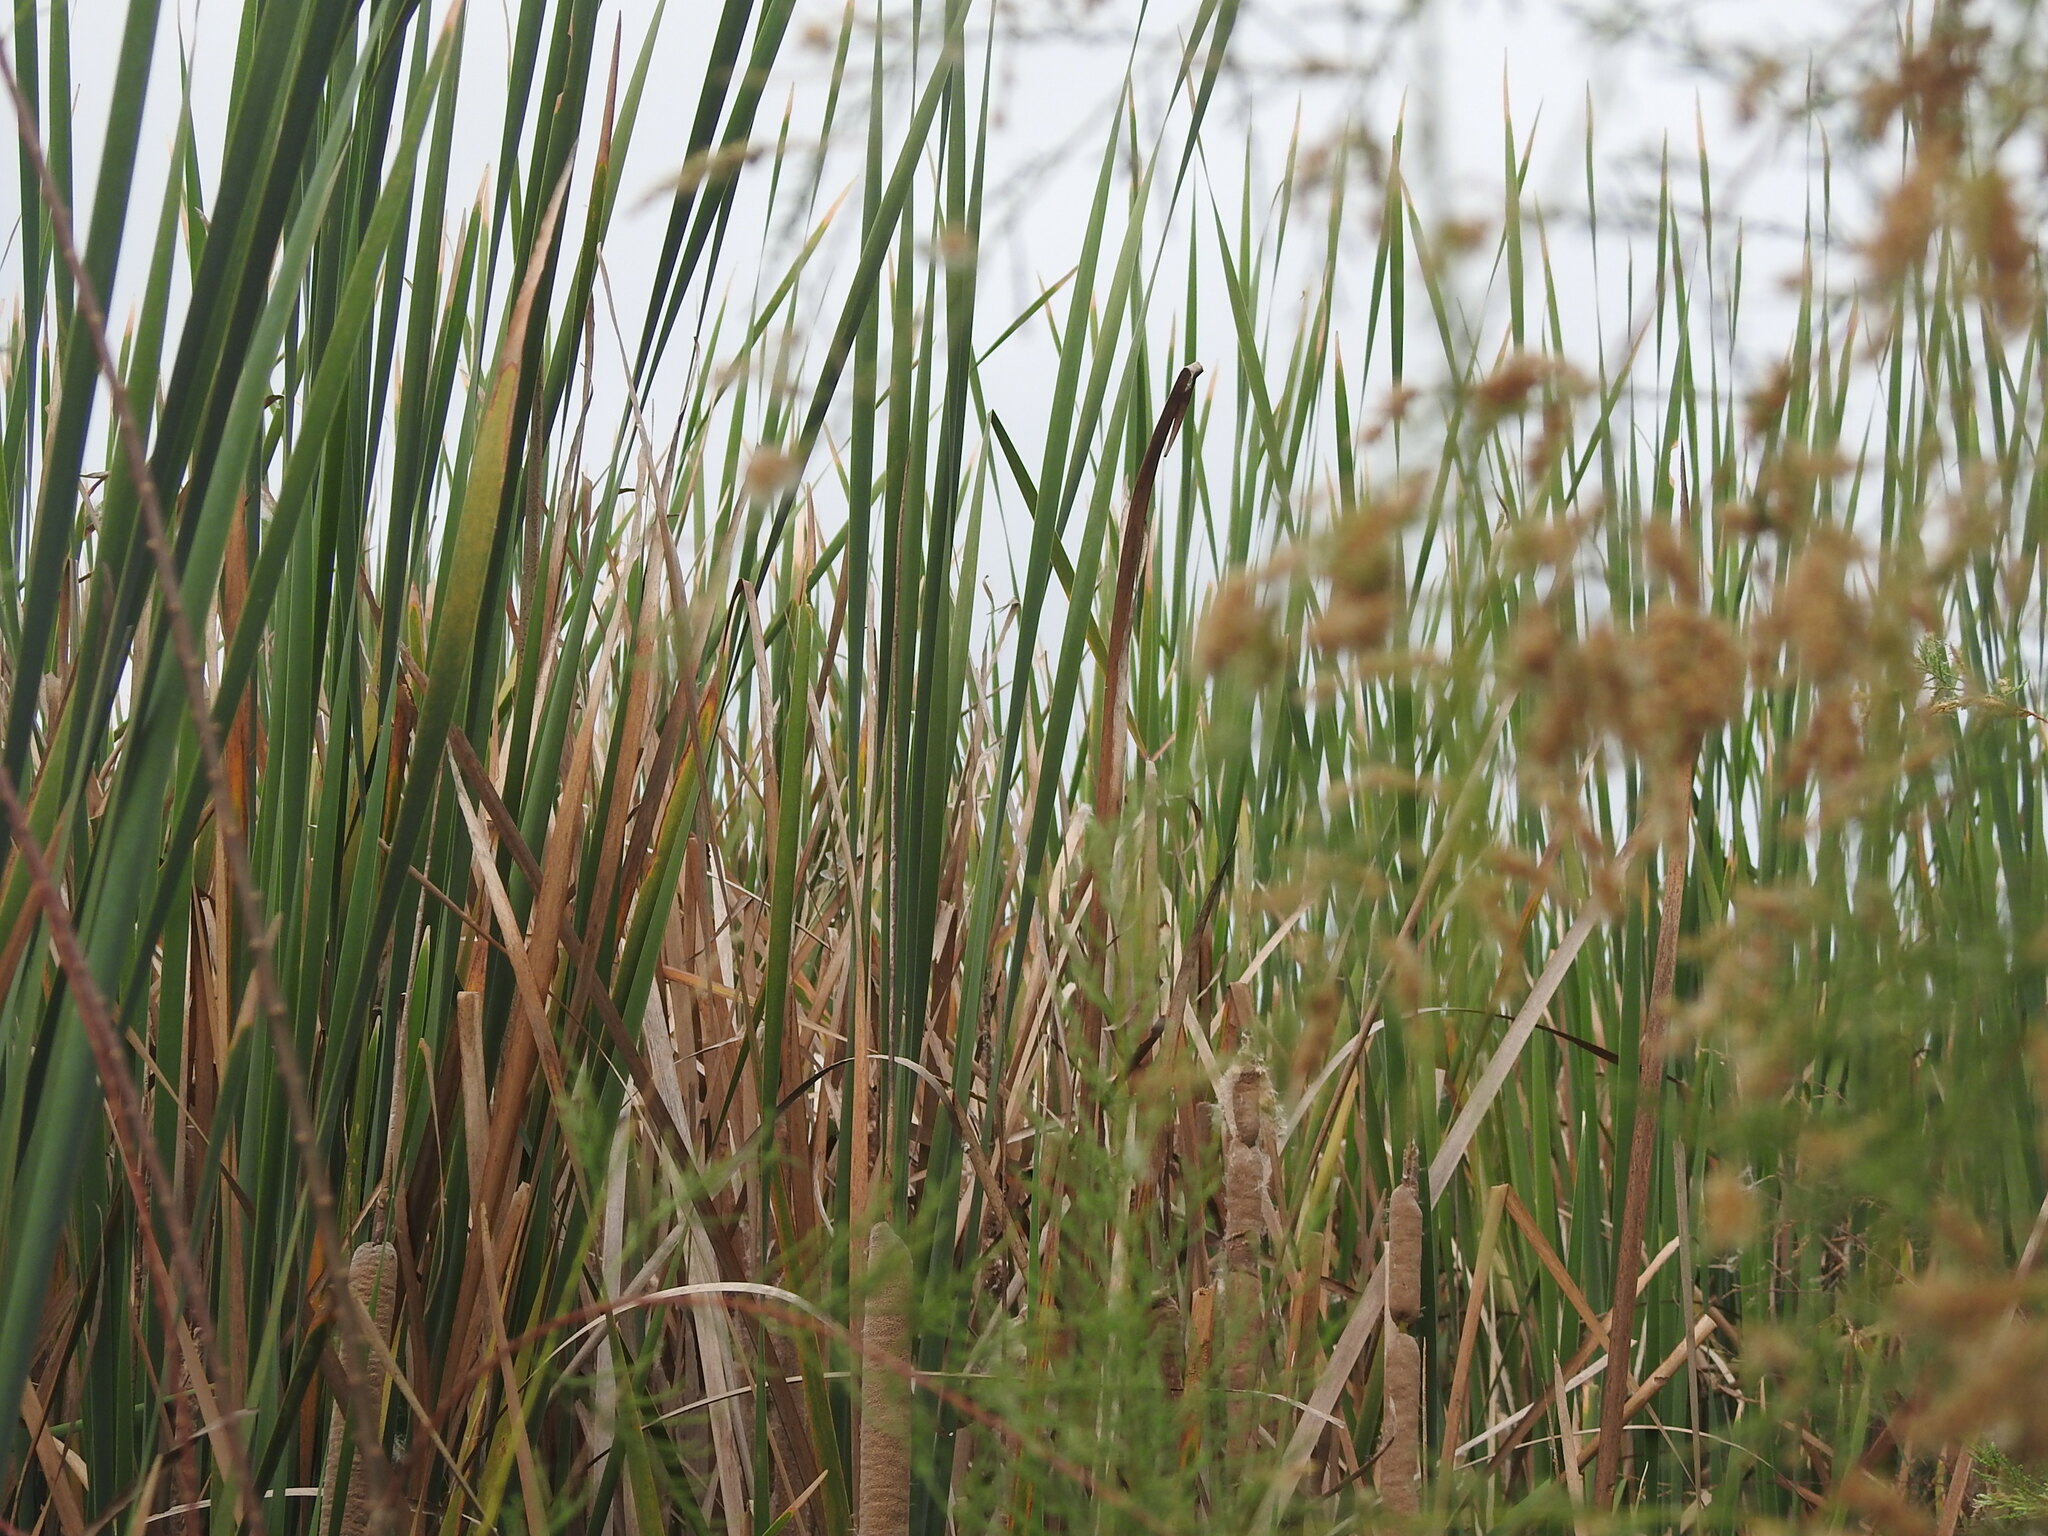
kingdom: Plantae
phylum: Tracheophyta
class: Liliopsida
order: Poales
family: Typhaceae
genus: Typha
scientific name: Typha domingensis
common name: Southern cattail
